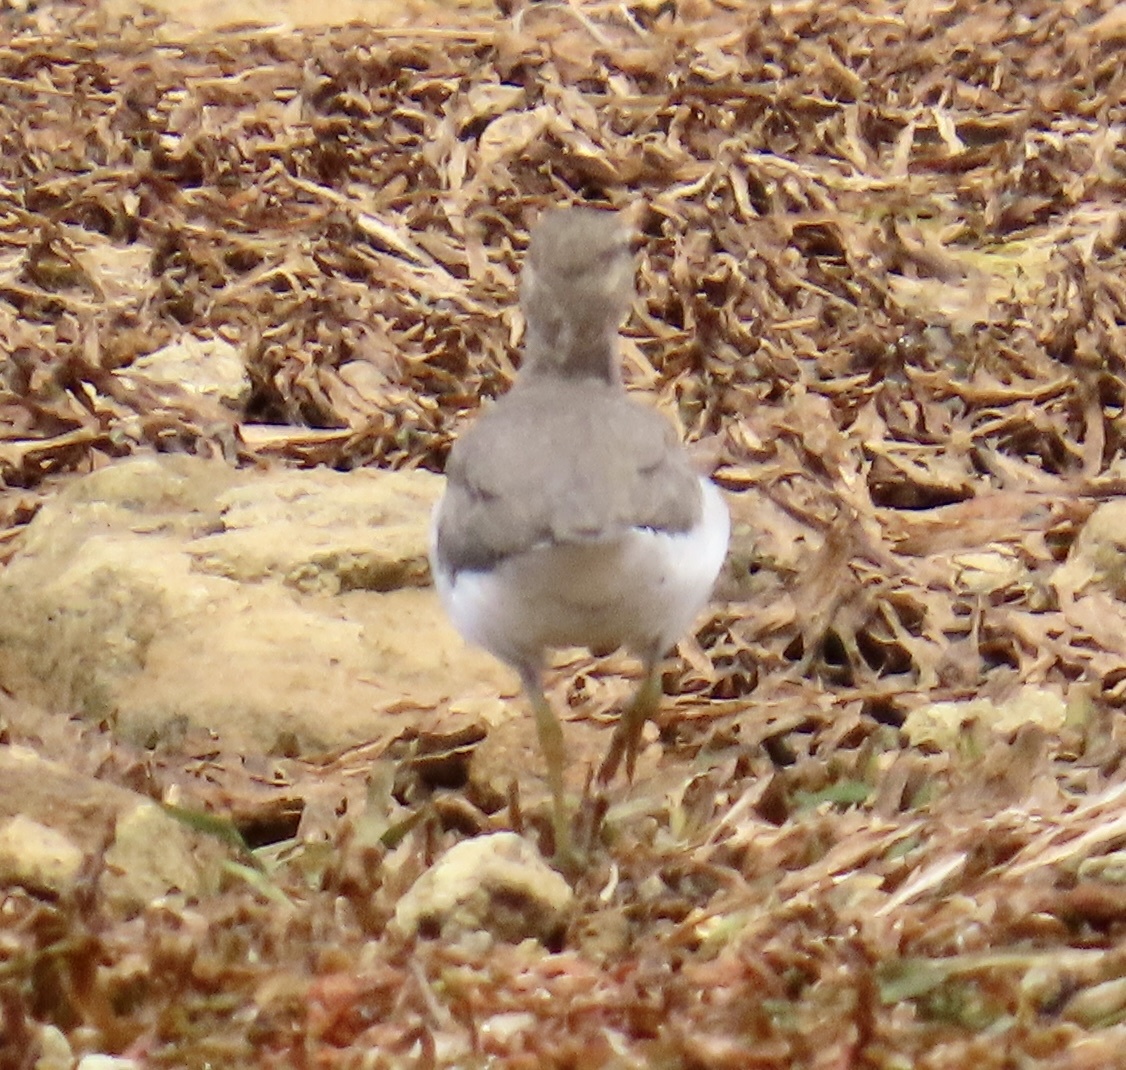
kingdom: Animalia
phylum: Chordata
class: Aves
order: Charadriiformes
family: Scolopacidae
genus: Actitis
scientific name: Actitis macularius
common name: Spotted sandpiper
